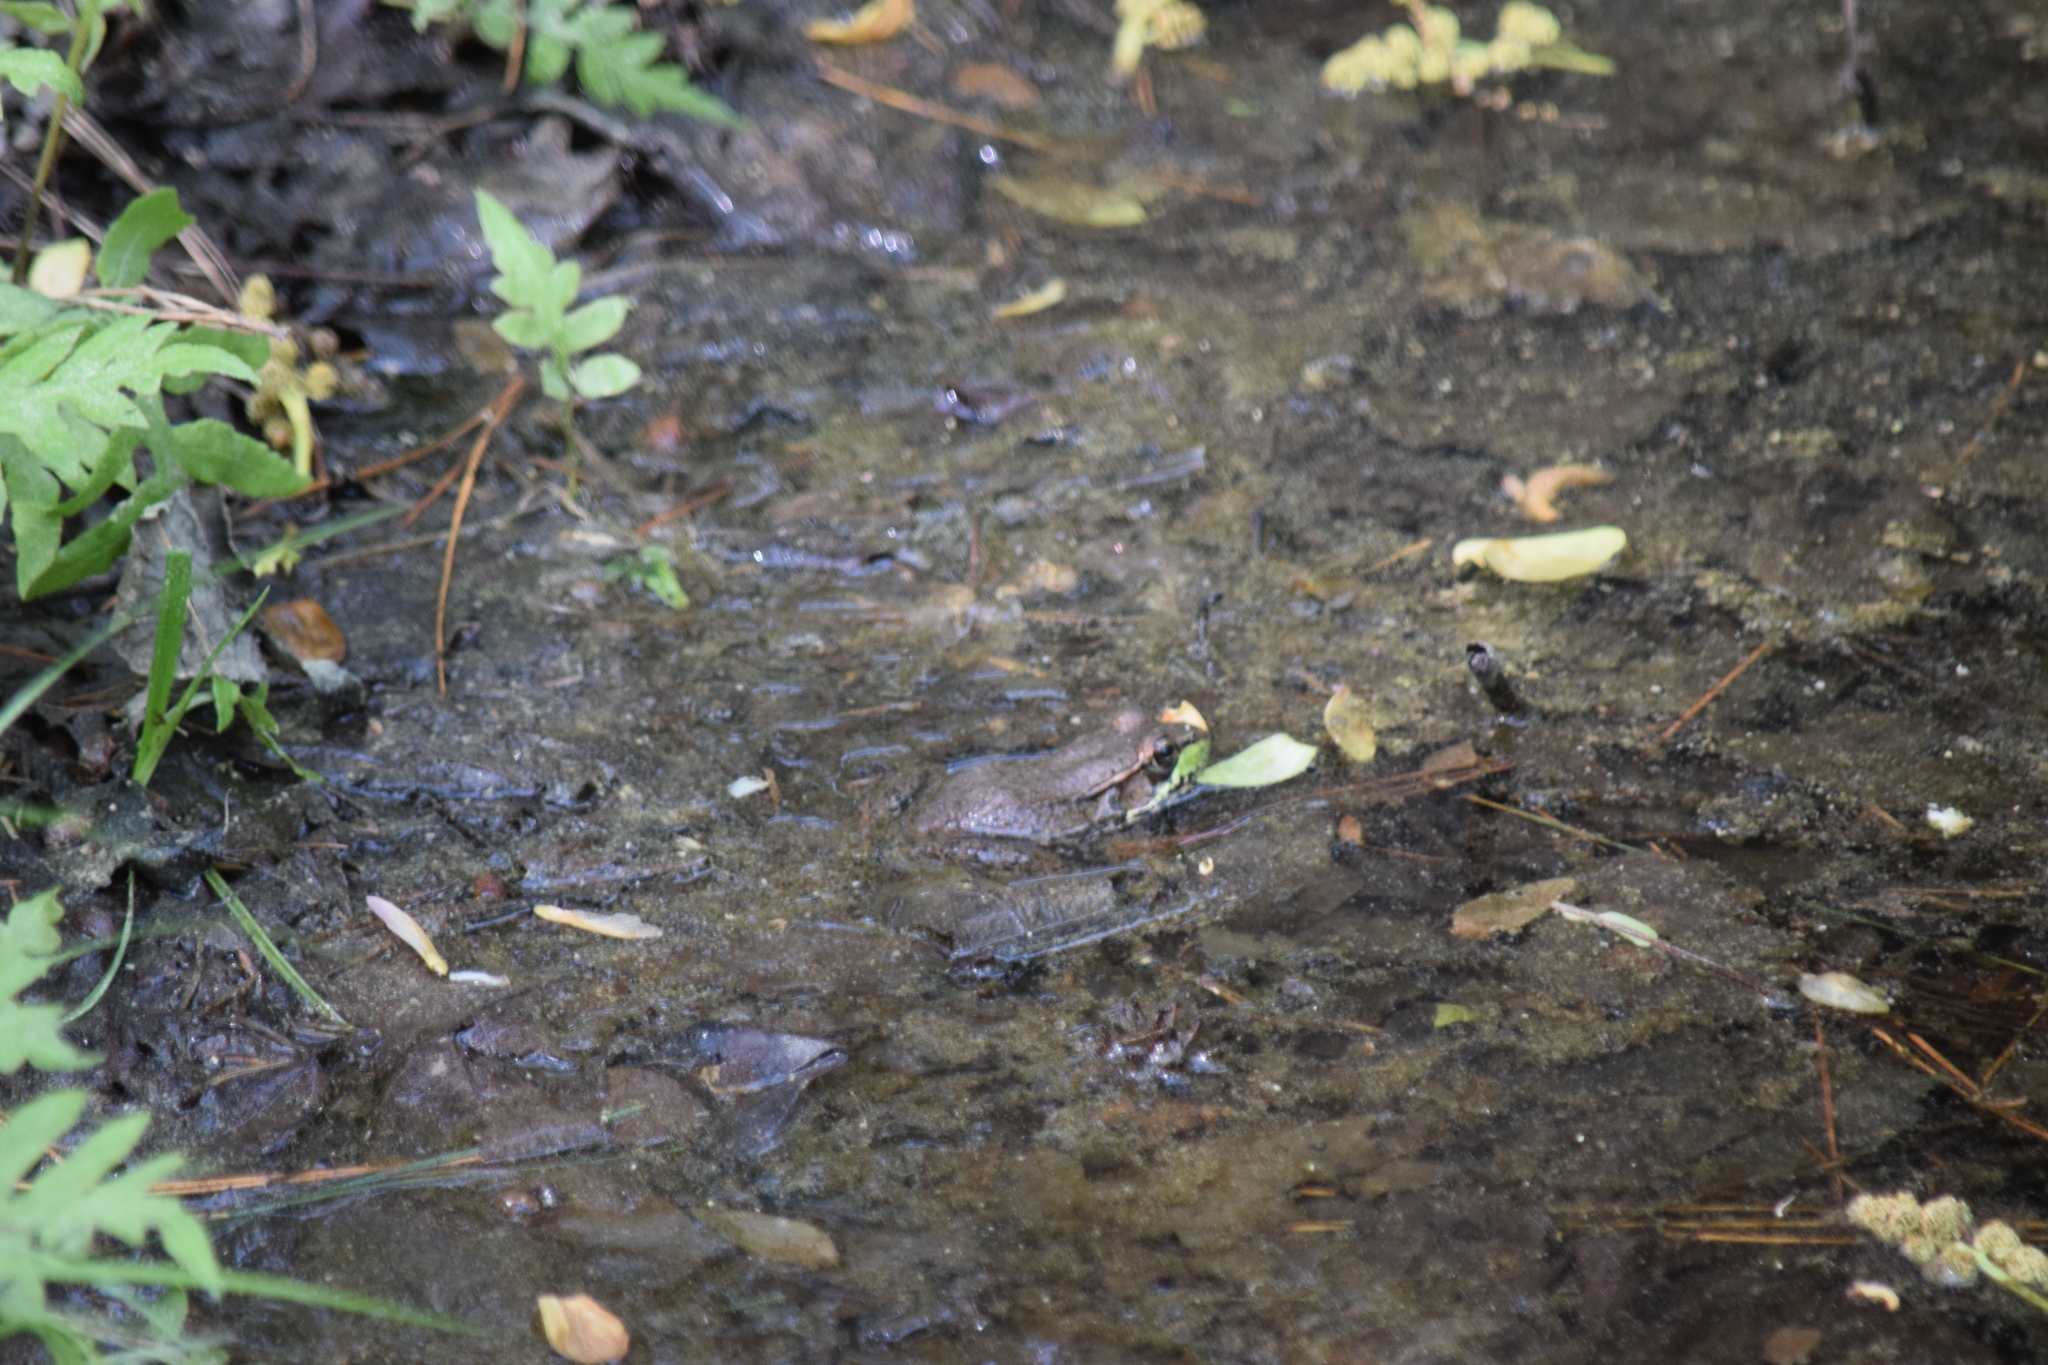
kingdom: Animalia
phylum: Chordata
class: Amphibia
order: Anura
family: Ranidae
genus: Lithobates
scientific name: Lithobates clamitans
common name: Green frog
